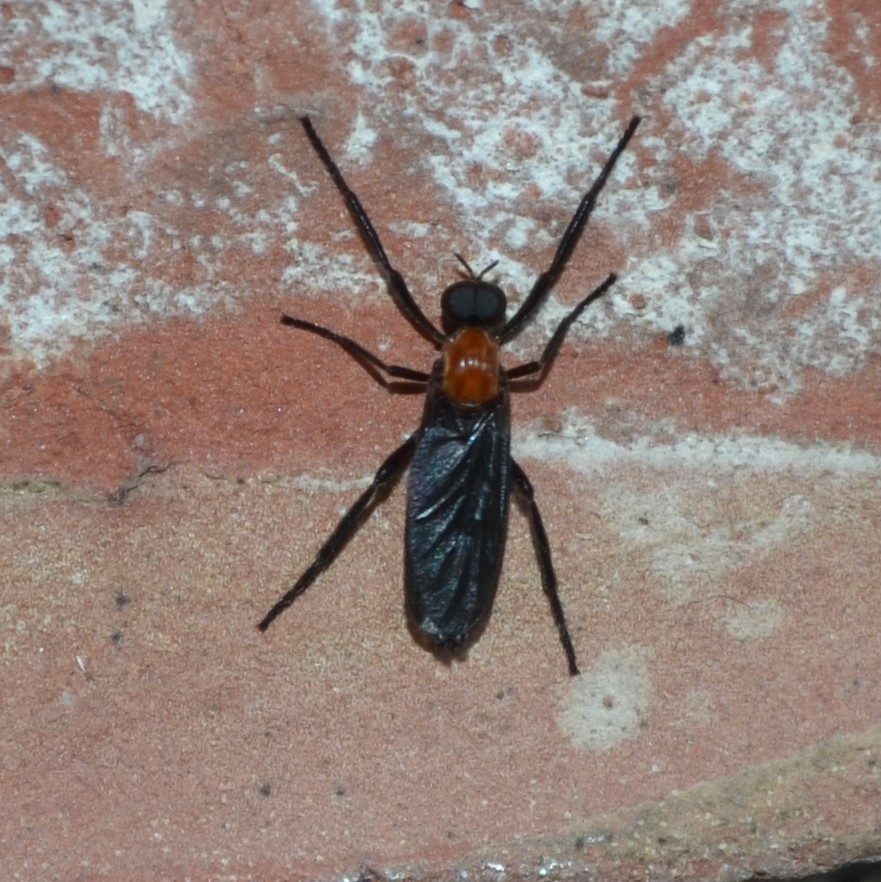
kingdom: Animalia
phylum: Arthropoda
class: Insecta
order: Diptera
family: Bibionidae
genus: Plecia
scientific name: Plecia nearctica
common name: March fly
